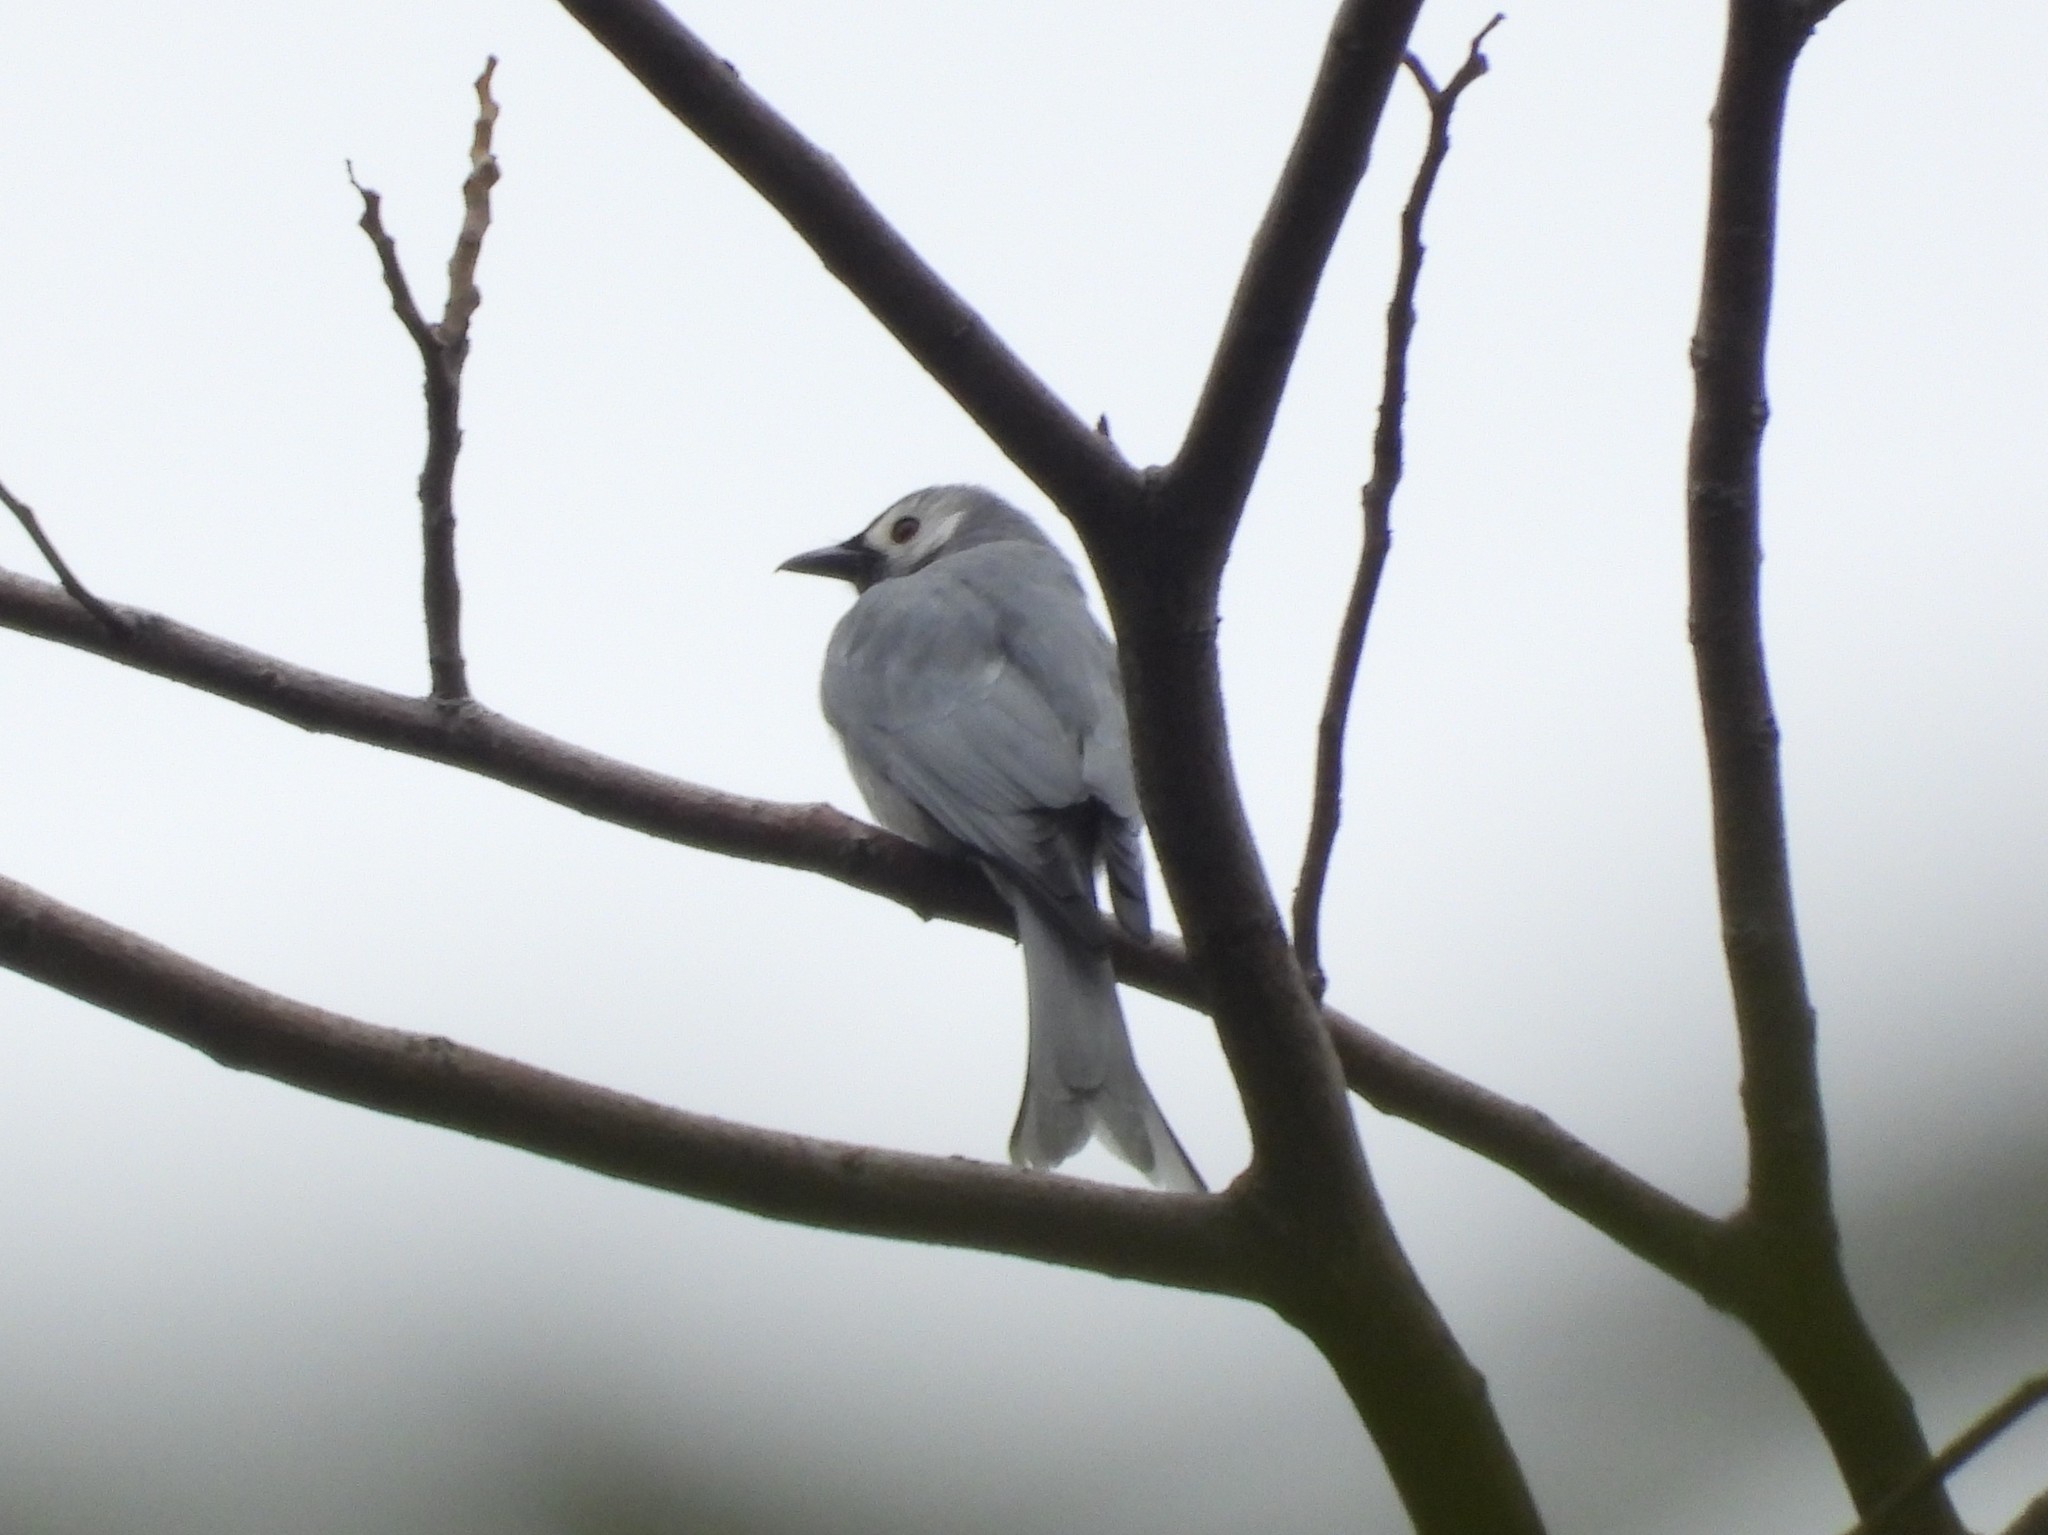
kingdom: Animalia
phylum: Chordata
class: Aves
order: Passeriformes
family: Dicruridae
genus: Dicrurus
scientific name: Dicrurus leucophaeus
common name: Ashy drongo
